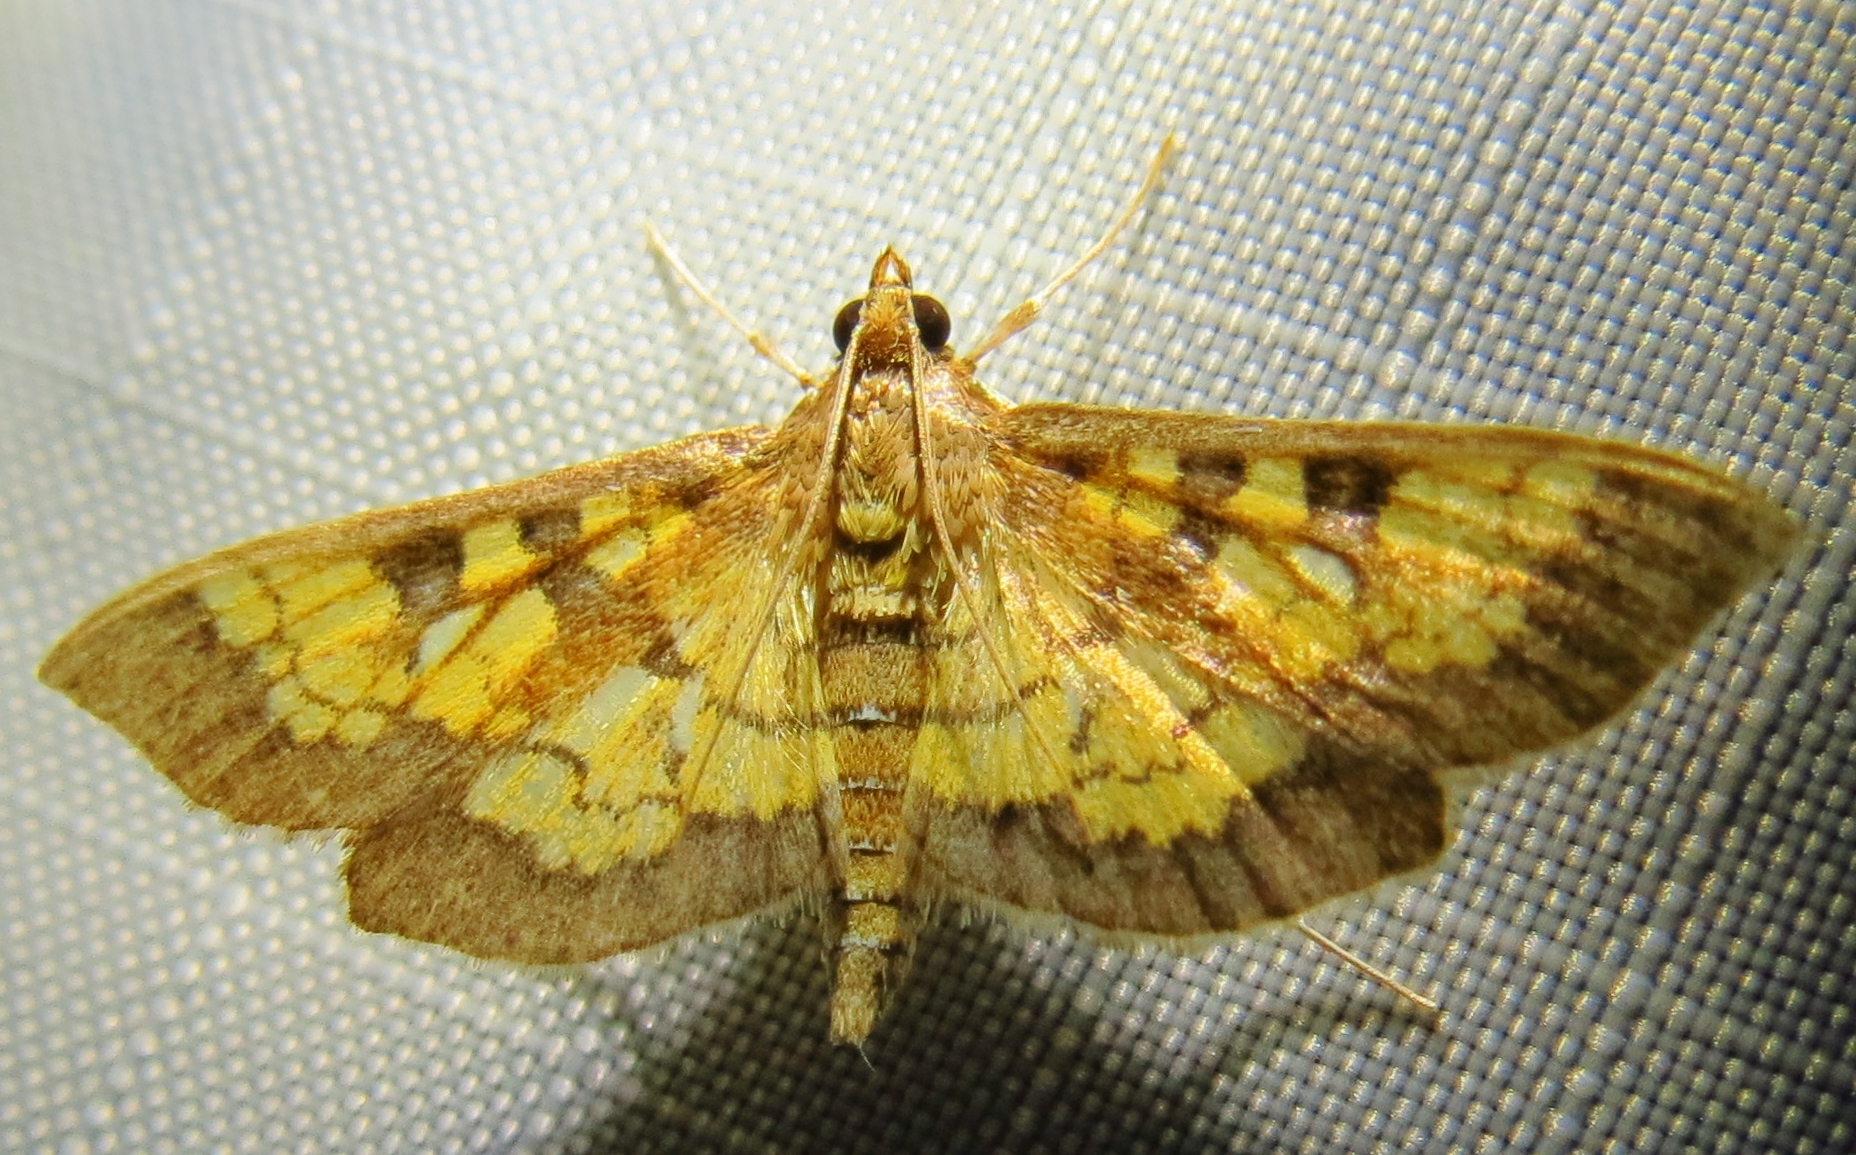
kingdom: Animalia
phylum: Arthropoda
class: Insecta
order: Lepidoptera
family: Crambidae
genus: Epipagis
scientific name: Epipagis adipaloides
